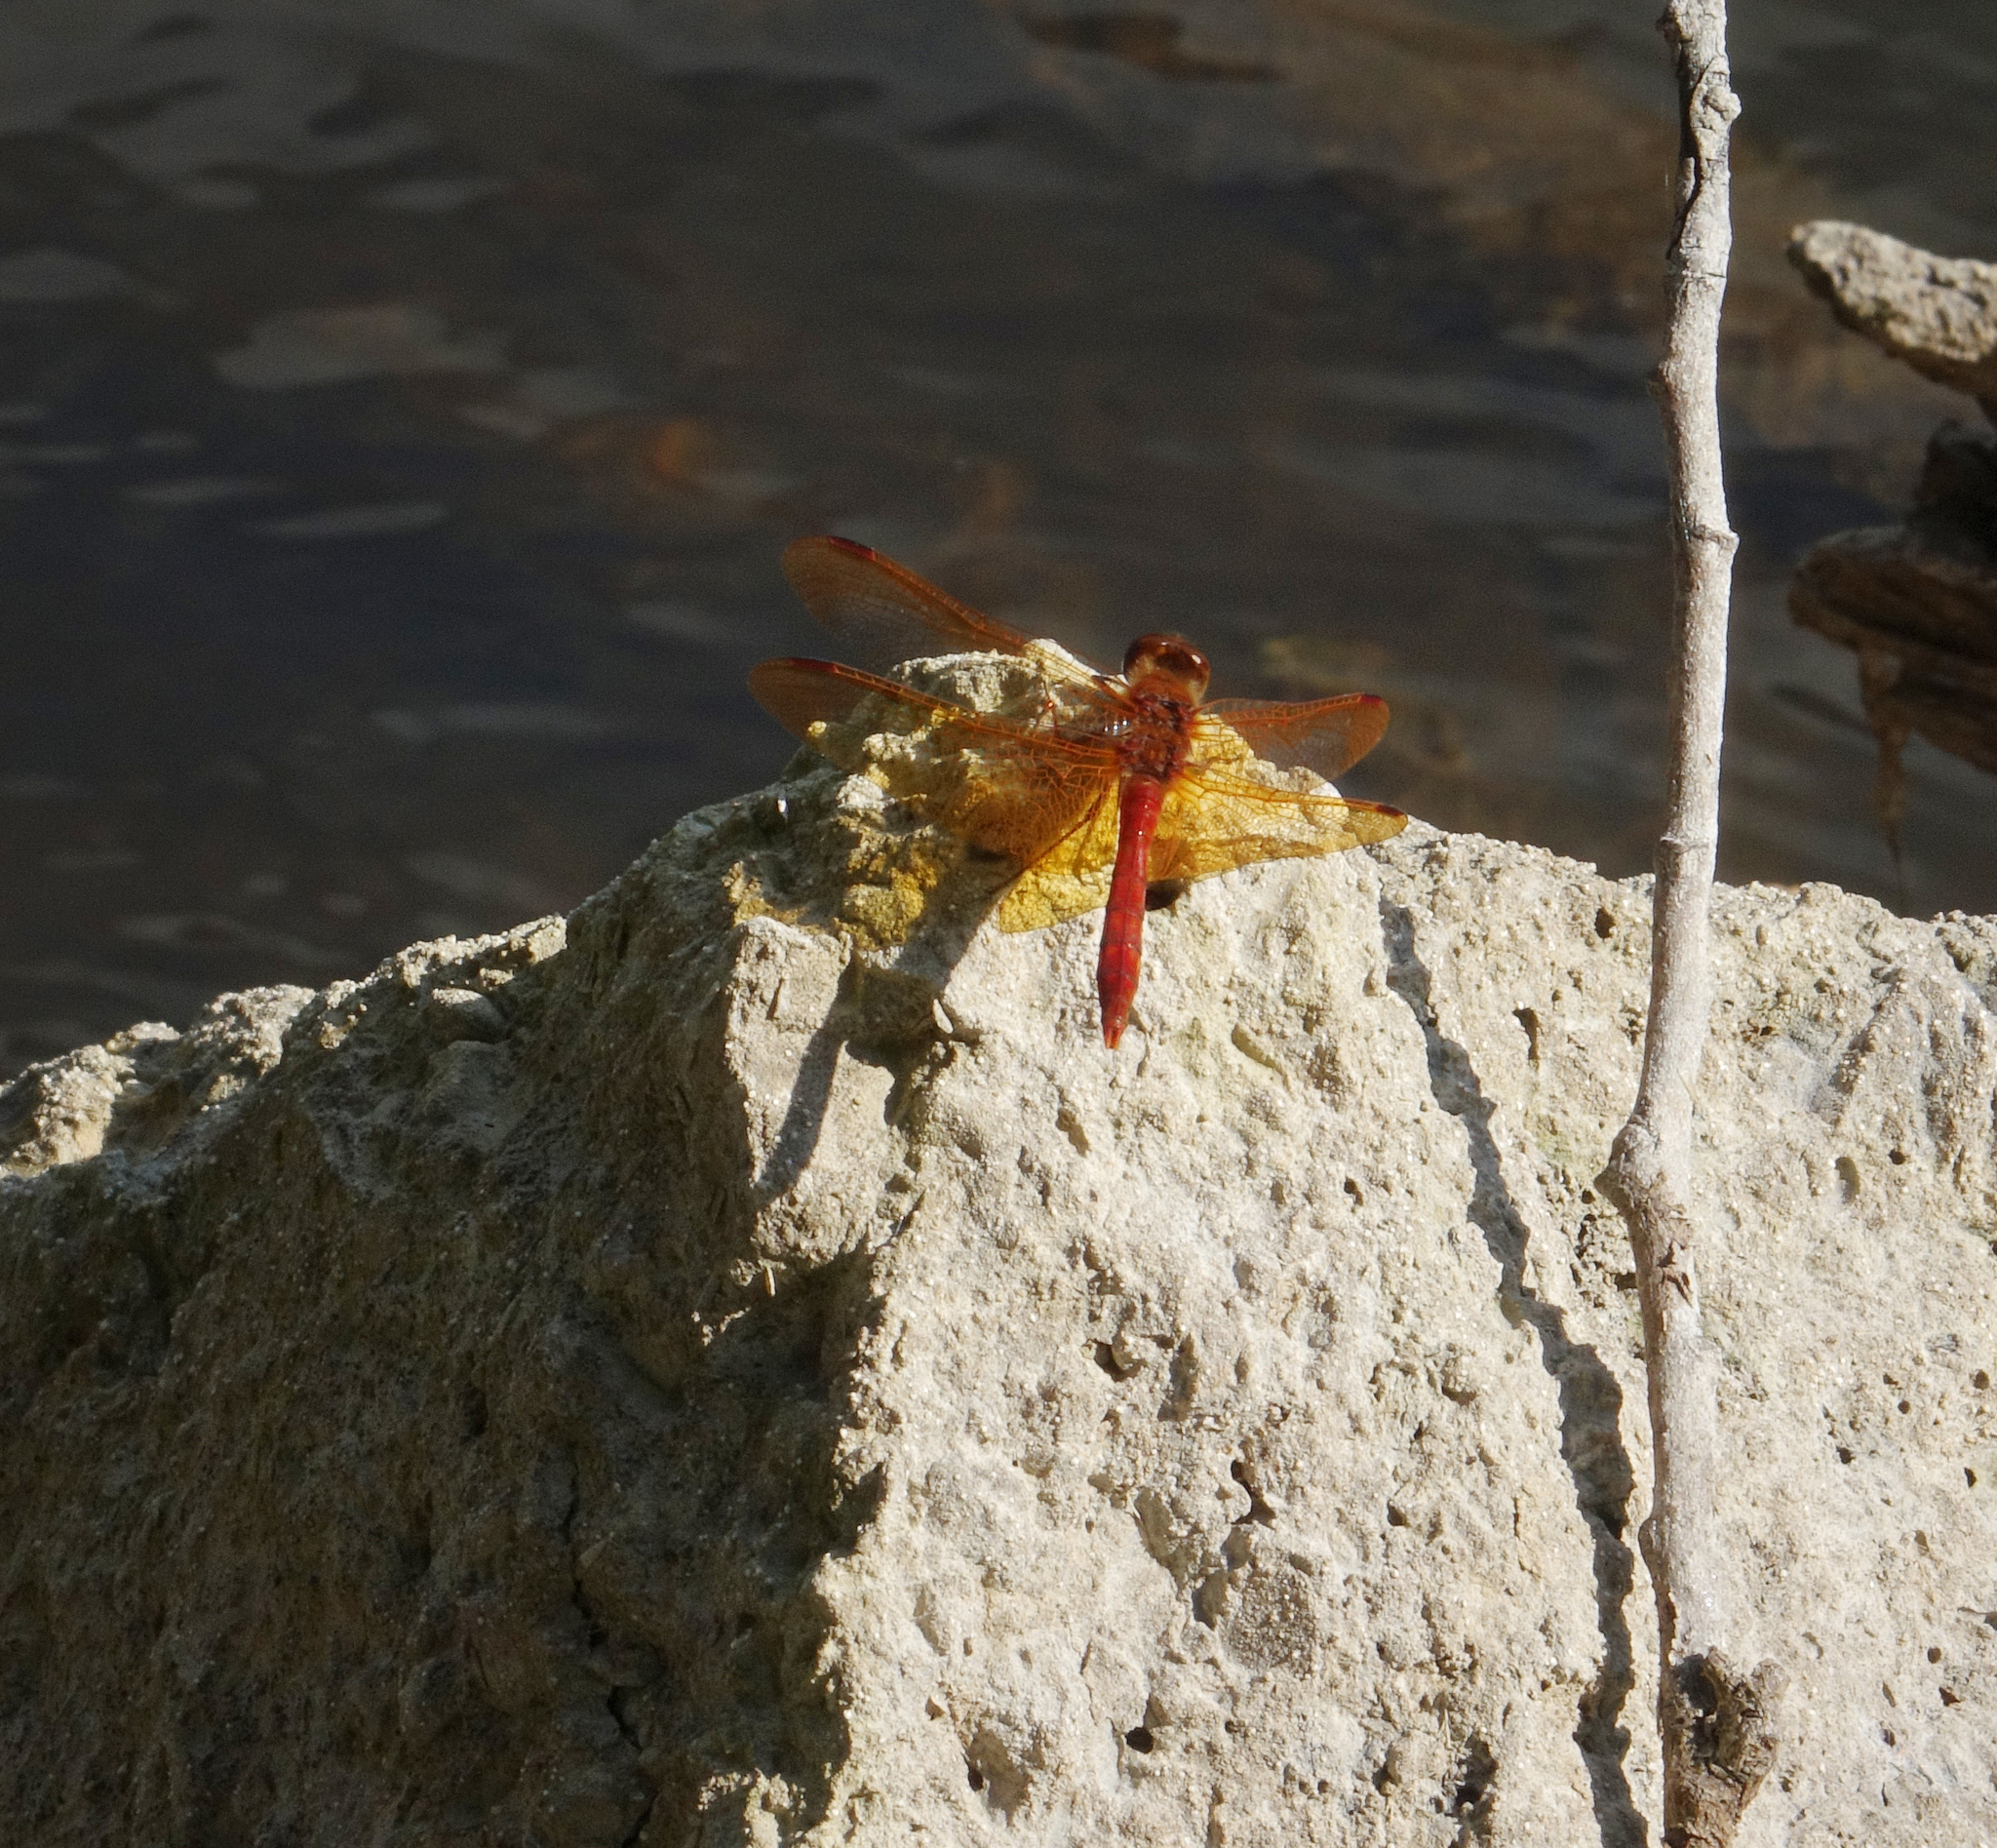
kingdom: Animalia
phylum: Arthropoda
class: Insecta
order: Odonata
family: Libellulidae
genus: Sympetrum
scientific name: Sympetrum croceolum
